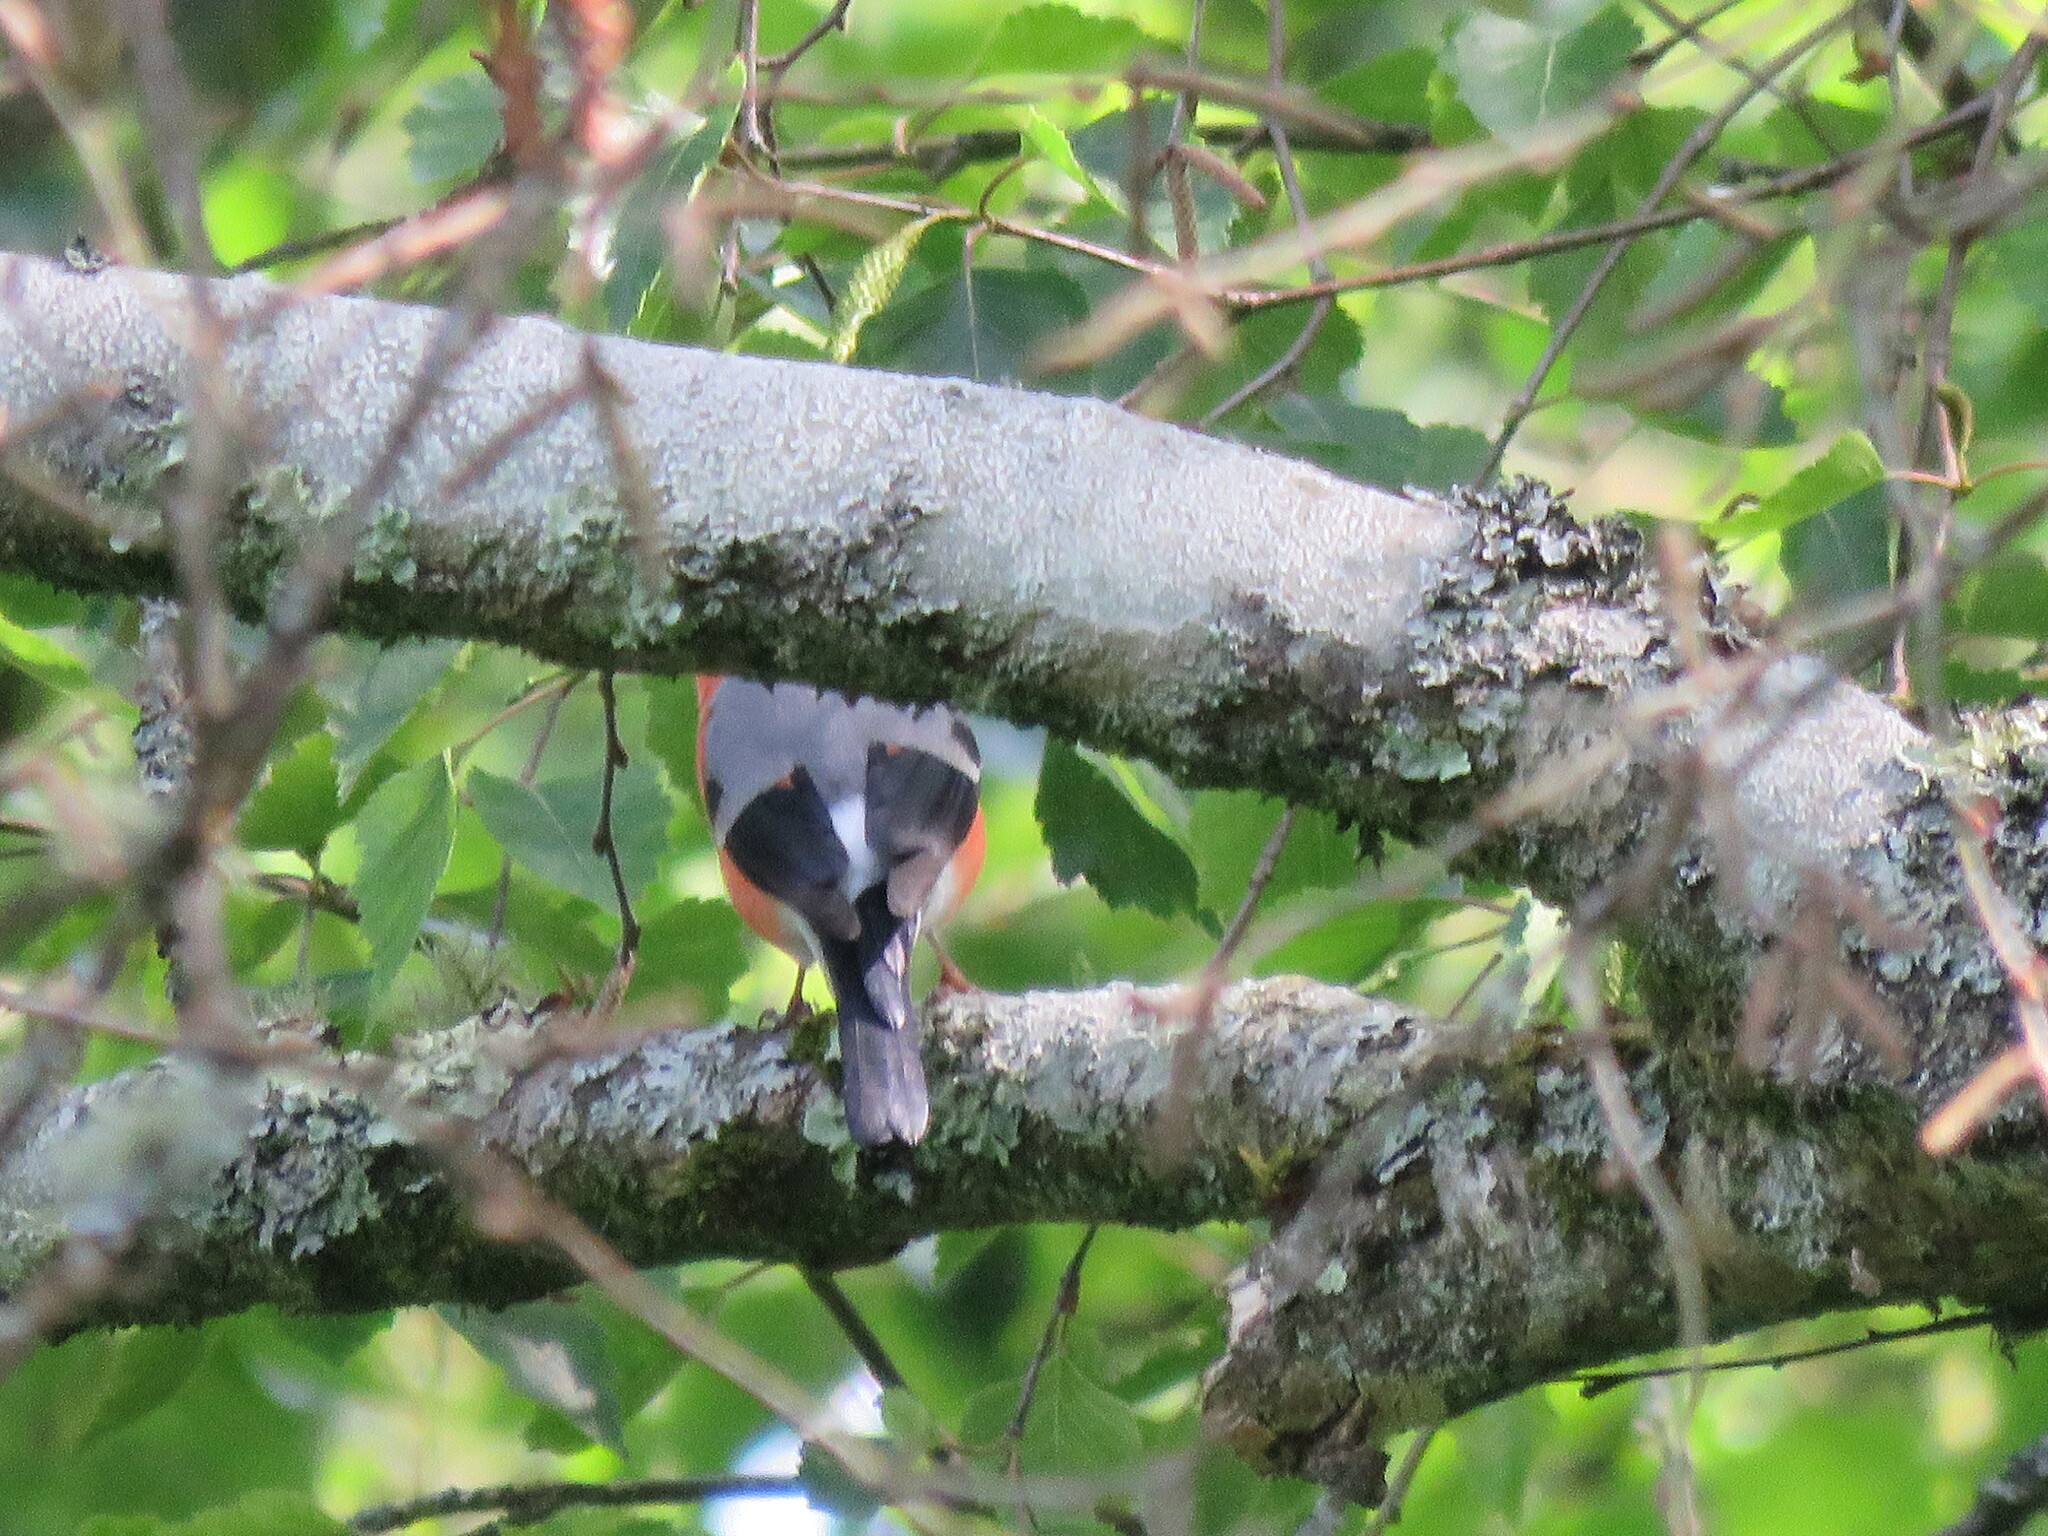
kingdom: Animalia
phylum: Chordata
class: Aves
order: Passeriformes
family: Fringillidae
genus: Pyrrhula
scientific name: Pyrrhula pyrrhula
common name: Eurasian bullfinch
